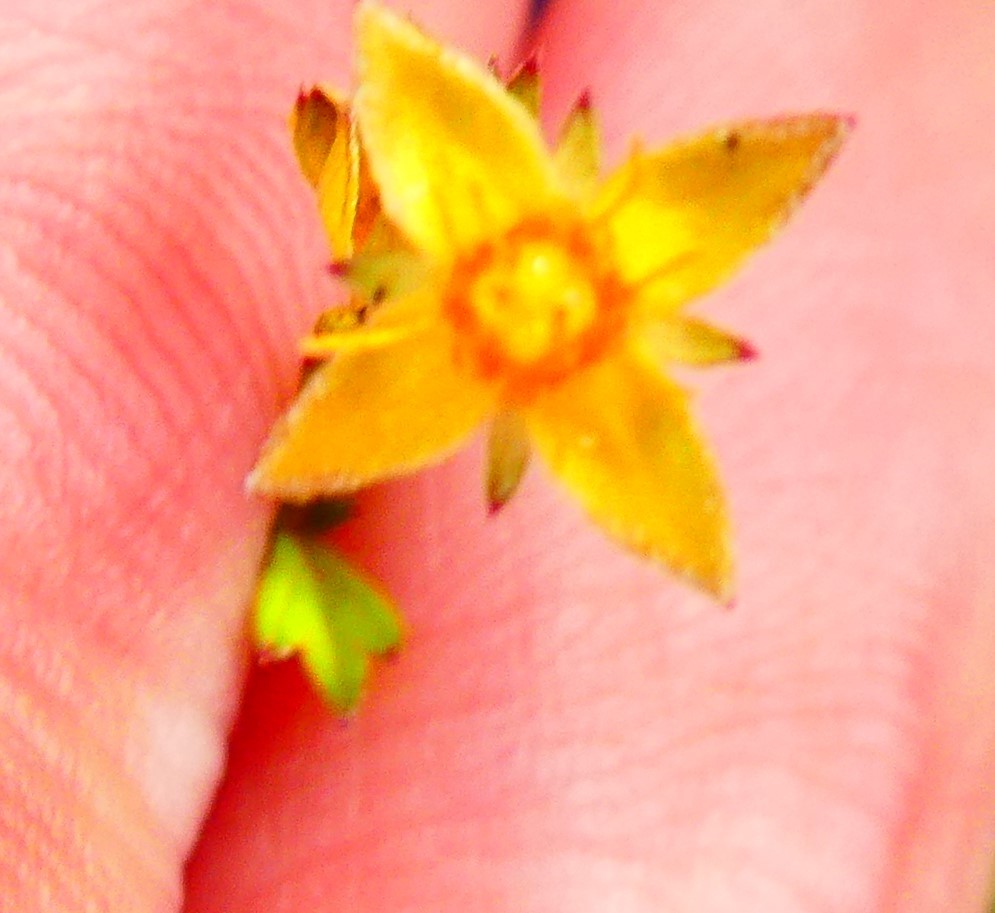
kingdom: Plantae
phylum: Tracheophyta
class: Magnoliopsida
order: Rosales
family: Rosaceae
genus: Potentilla
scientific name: Potentilla erecta
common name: Tormentil
